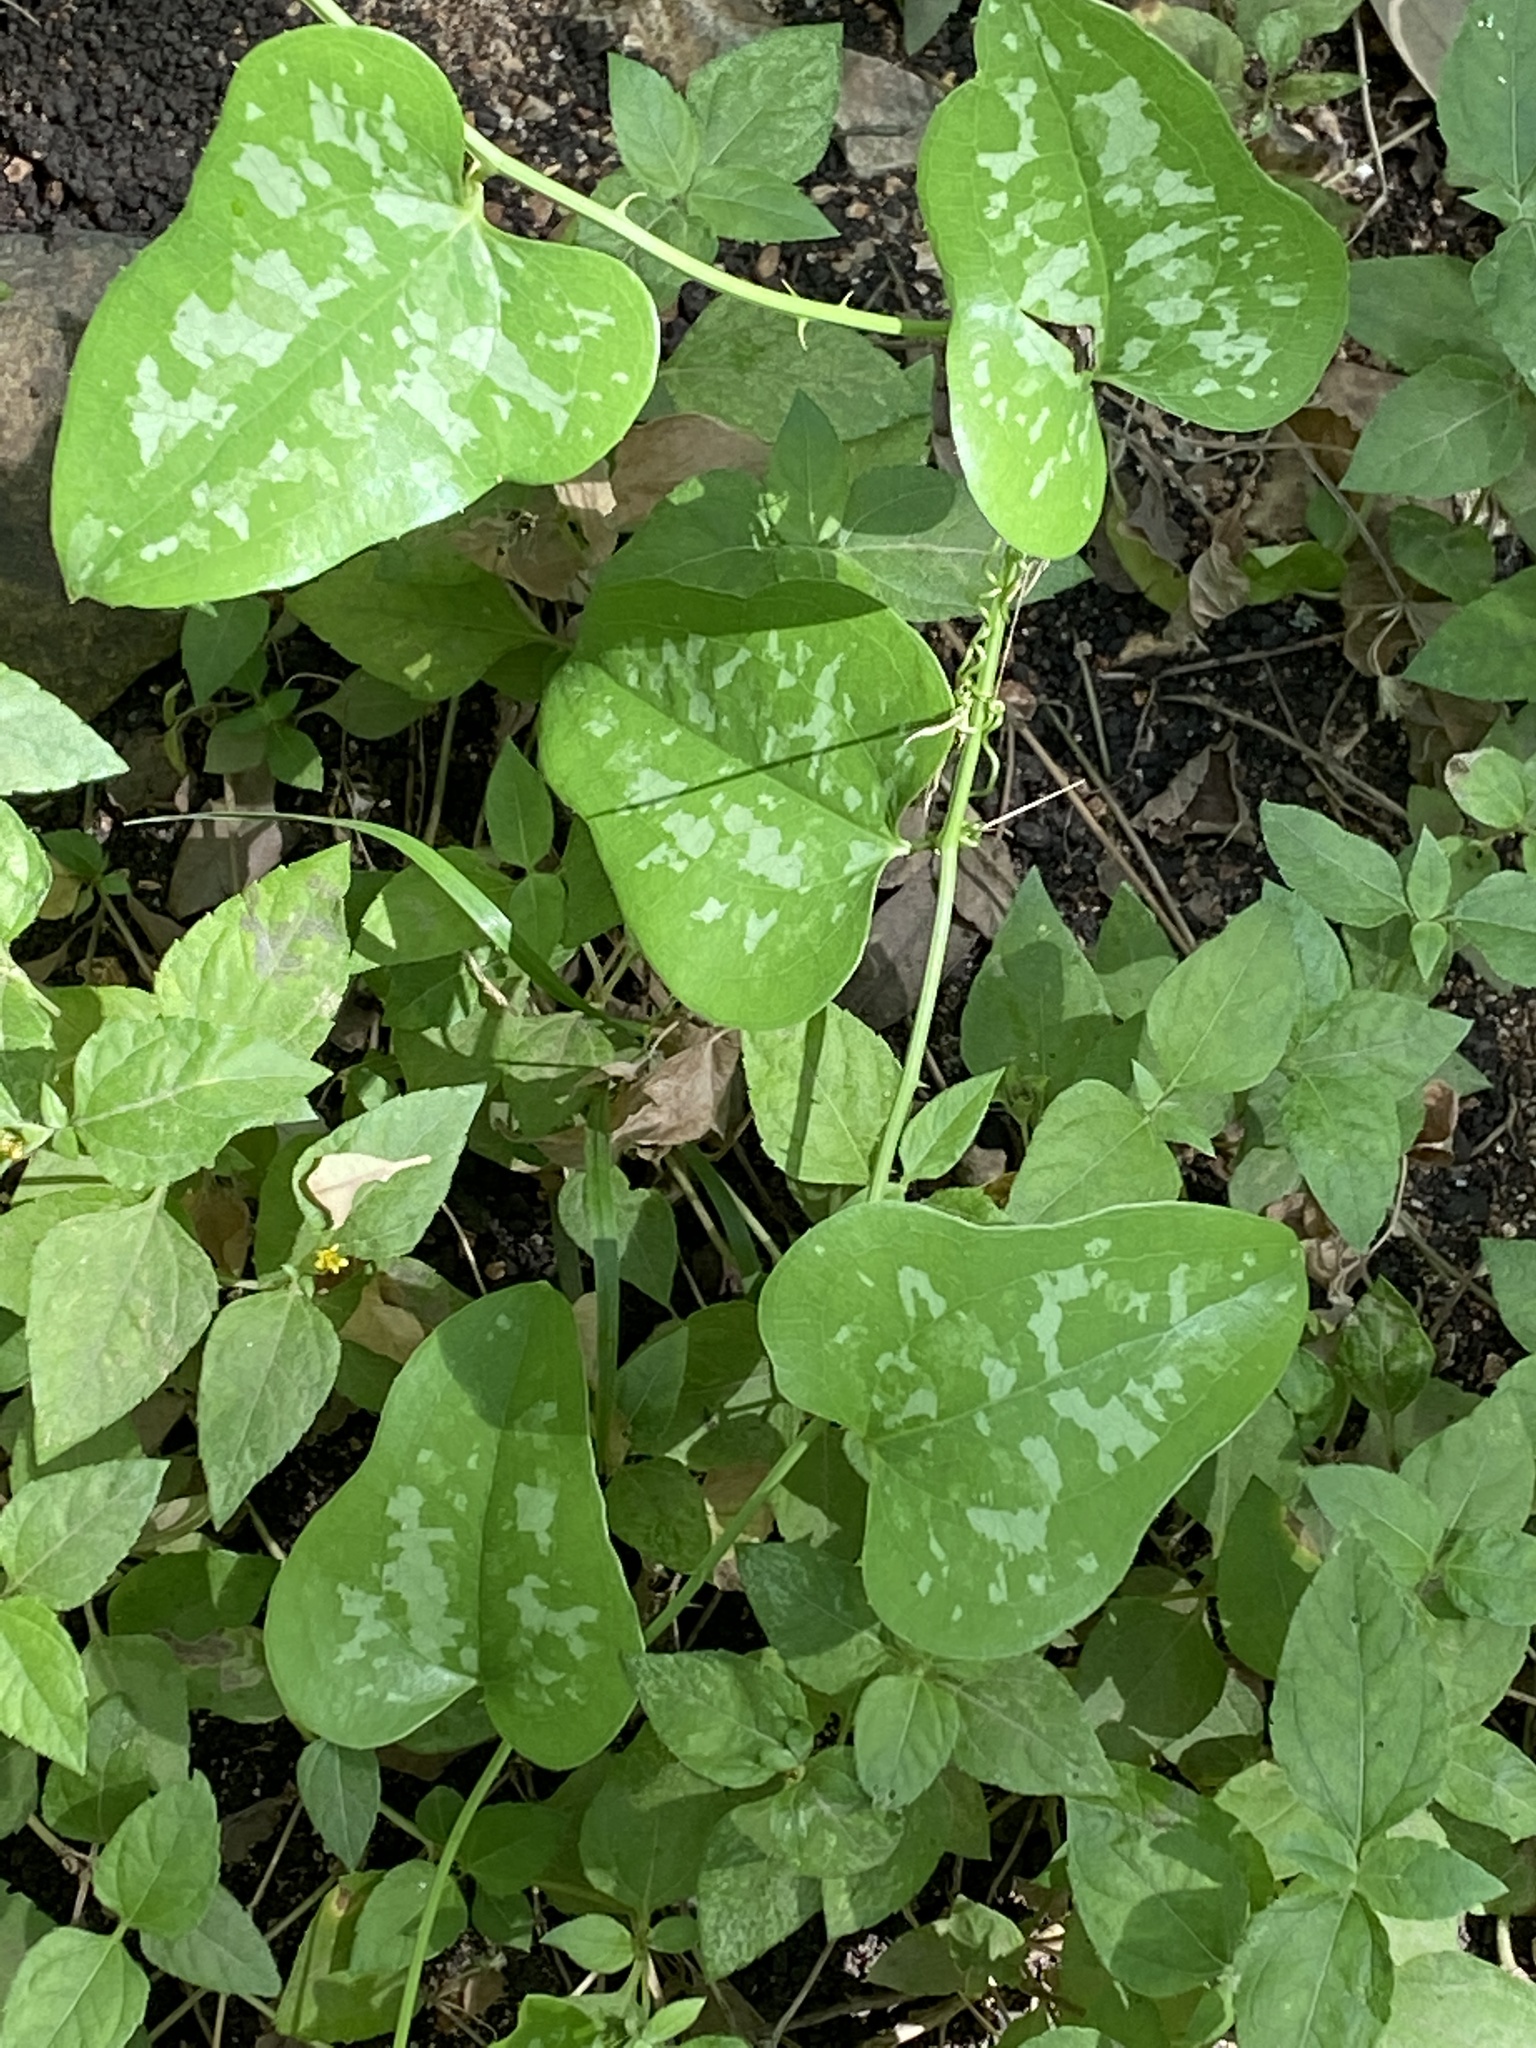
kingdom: Plantae
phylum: Tracheophyta
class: Liliopsida
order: Liliales
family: Smilacaceae
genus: Smilax
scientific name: Smilax bona-nox
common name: Catbrier
